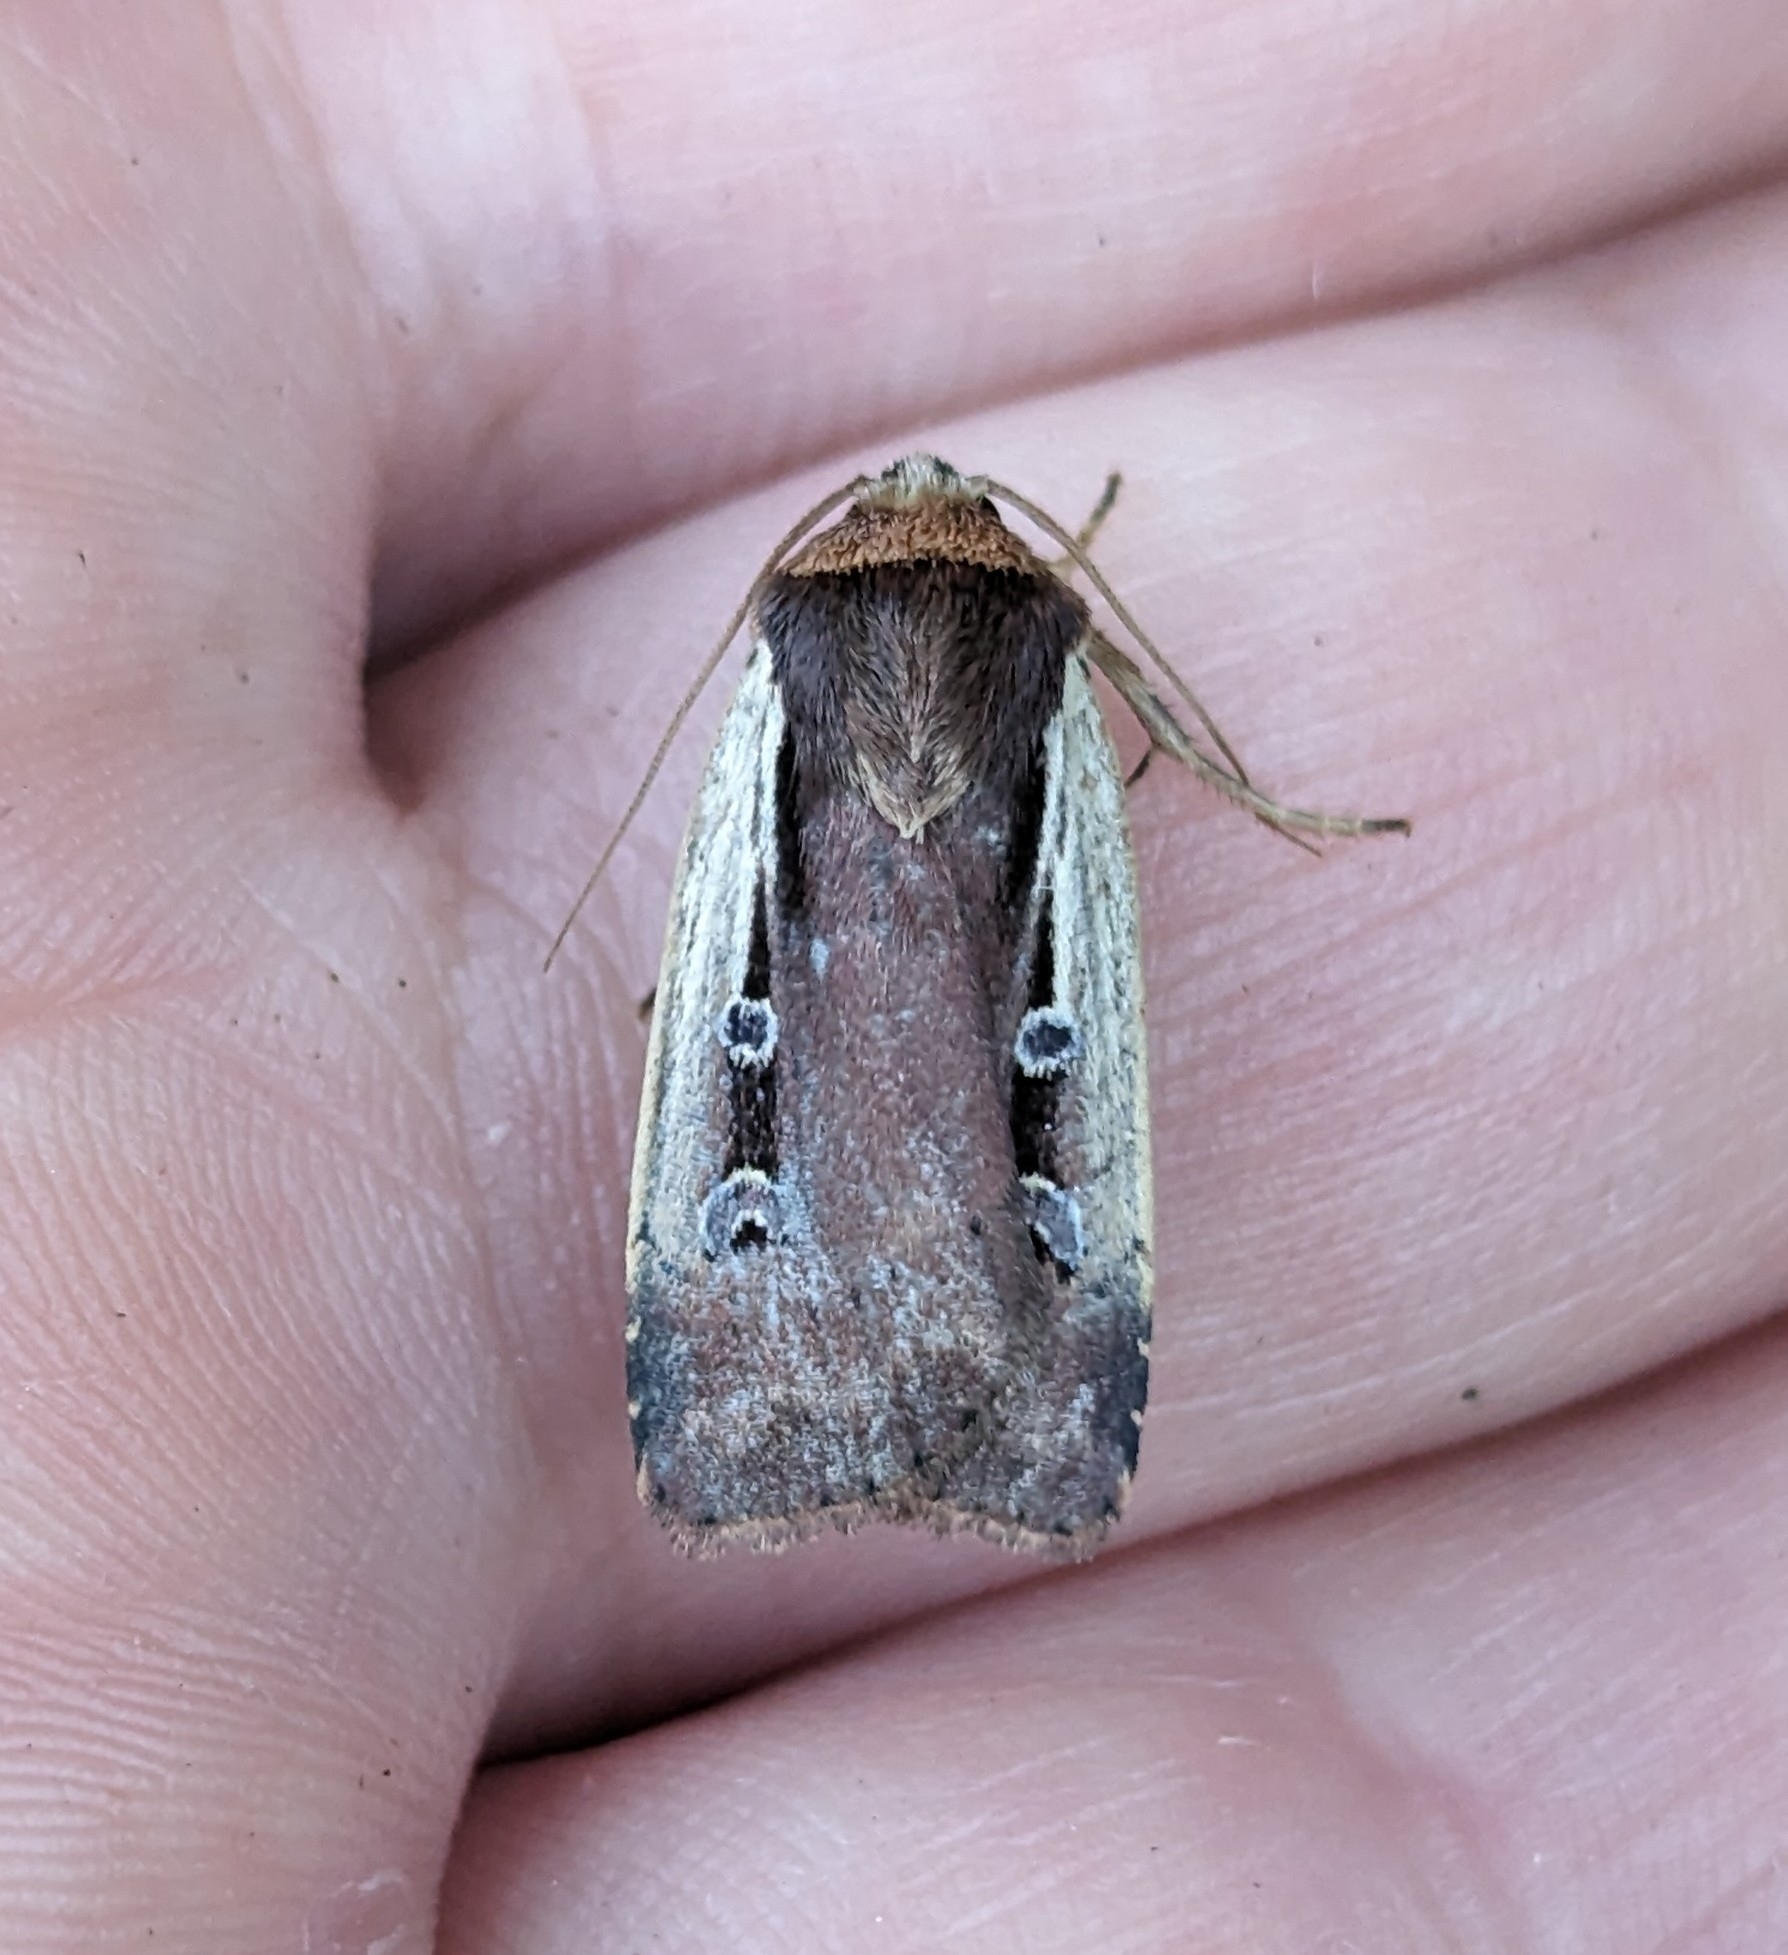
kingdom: Animalia
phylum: Arthropoda
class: Insecta
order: Lepidoptera
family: Noctuidae
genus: Ochropleura
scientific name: Ochropleura implecta
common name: Flame-shouldered dart
